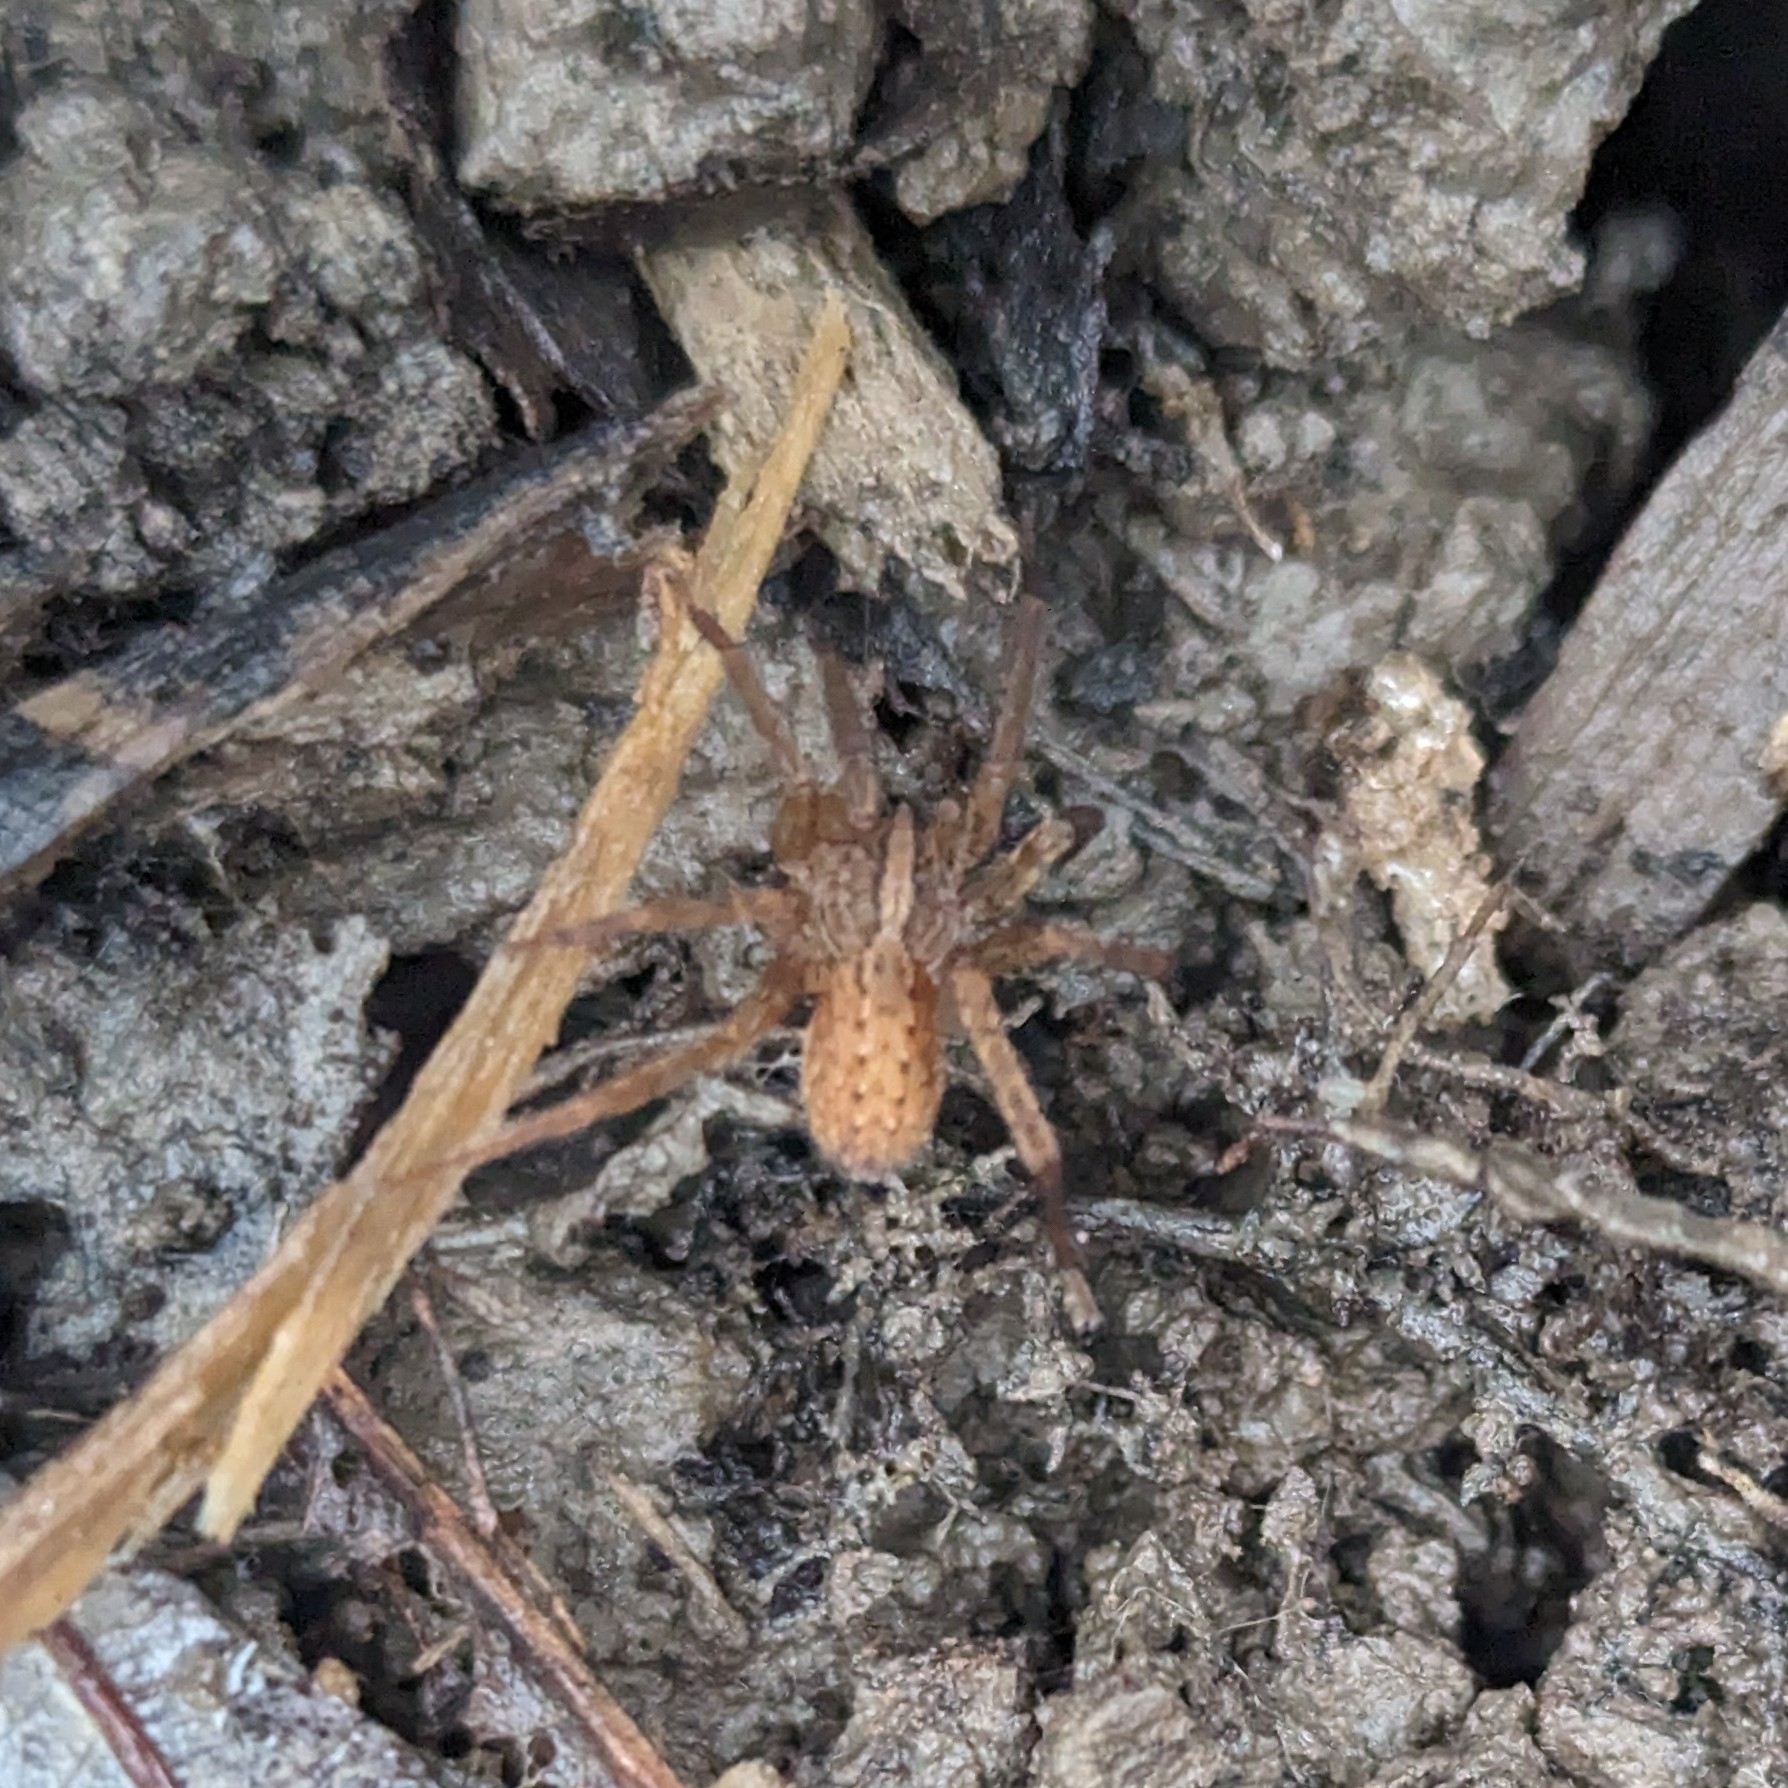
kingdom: Animalia
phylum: Arthropoda
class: Arachnida
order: Araneae
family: Ctenidae
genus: Anahita
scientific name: Anahita punctulata
